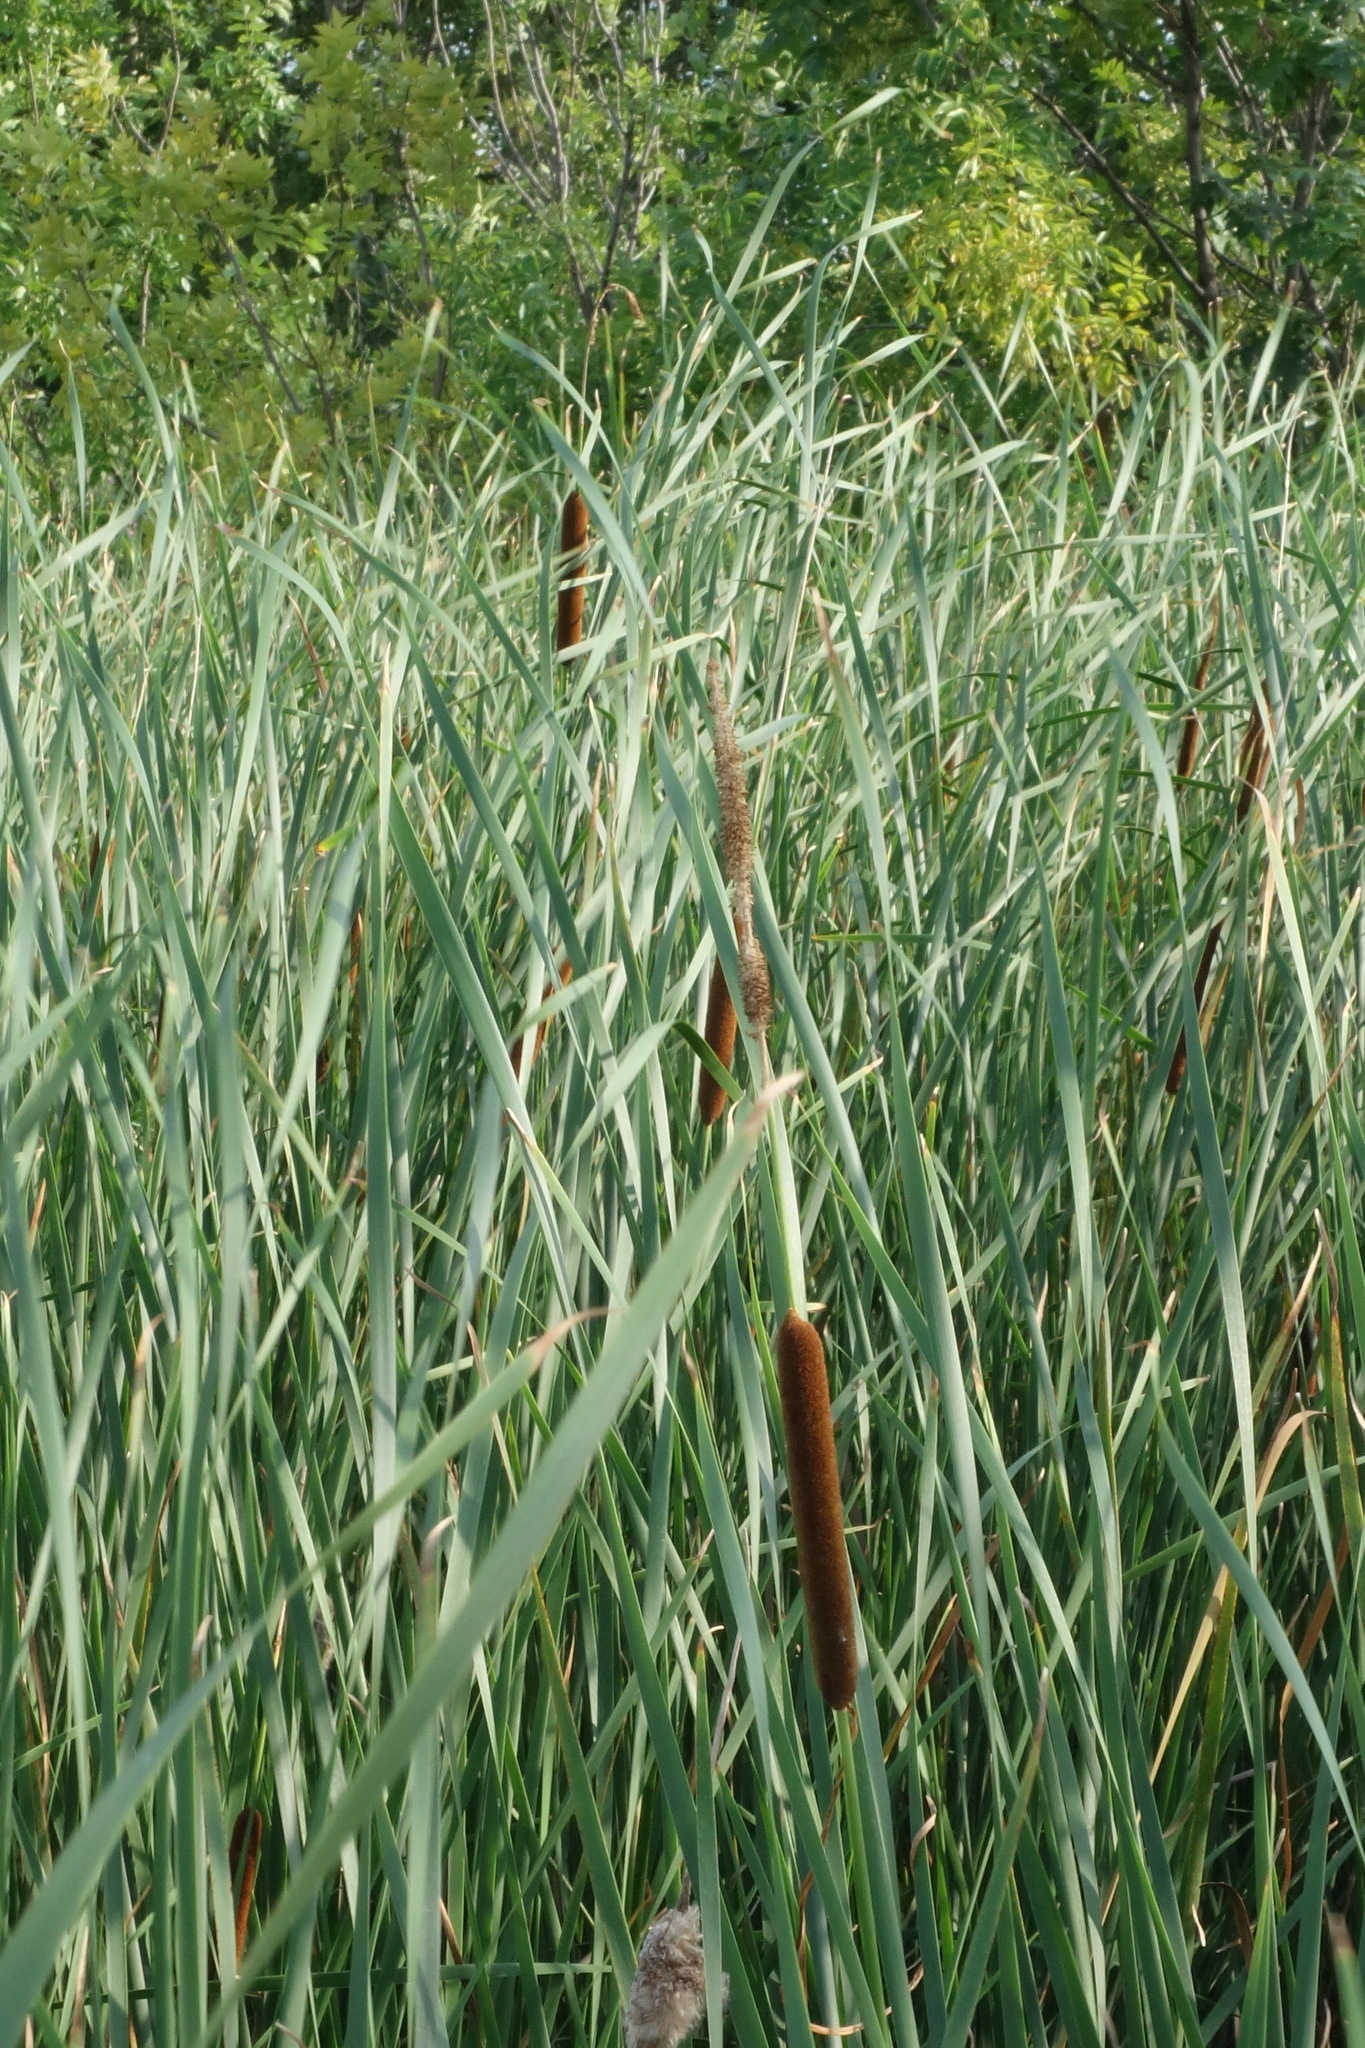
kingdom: Plantae
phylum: Tracheophyta
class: Liliopsida
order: Poales
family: Typhaceae
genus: Typha
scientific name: Typha angustifolia
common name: Lesser bulrush
